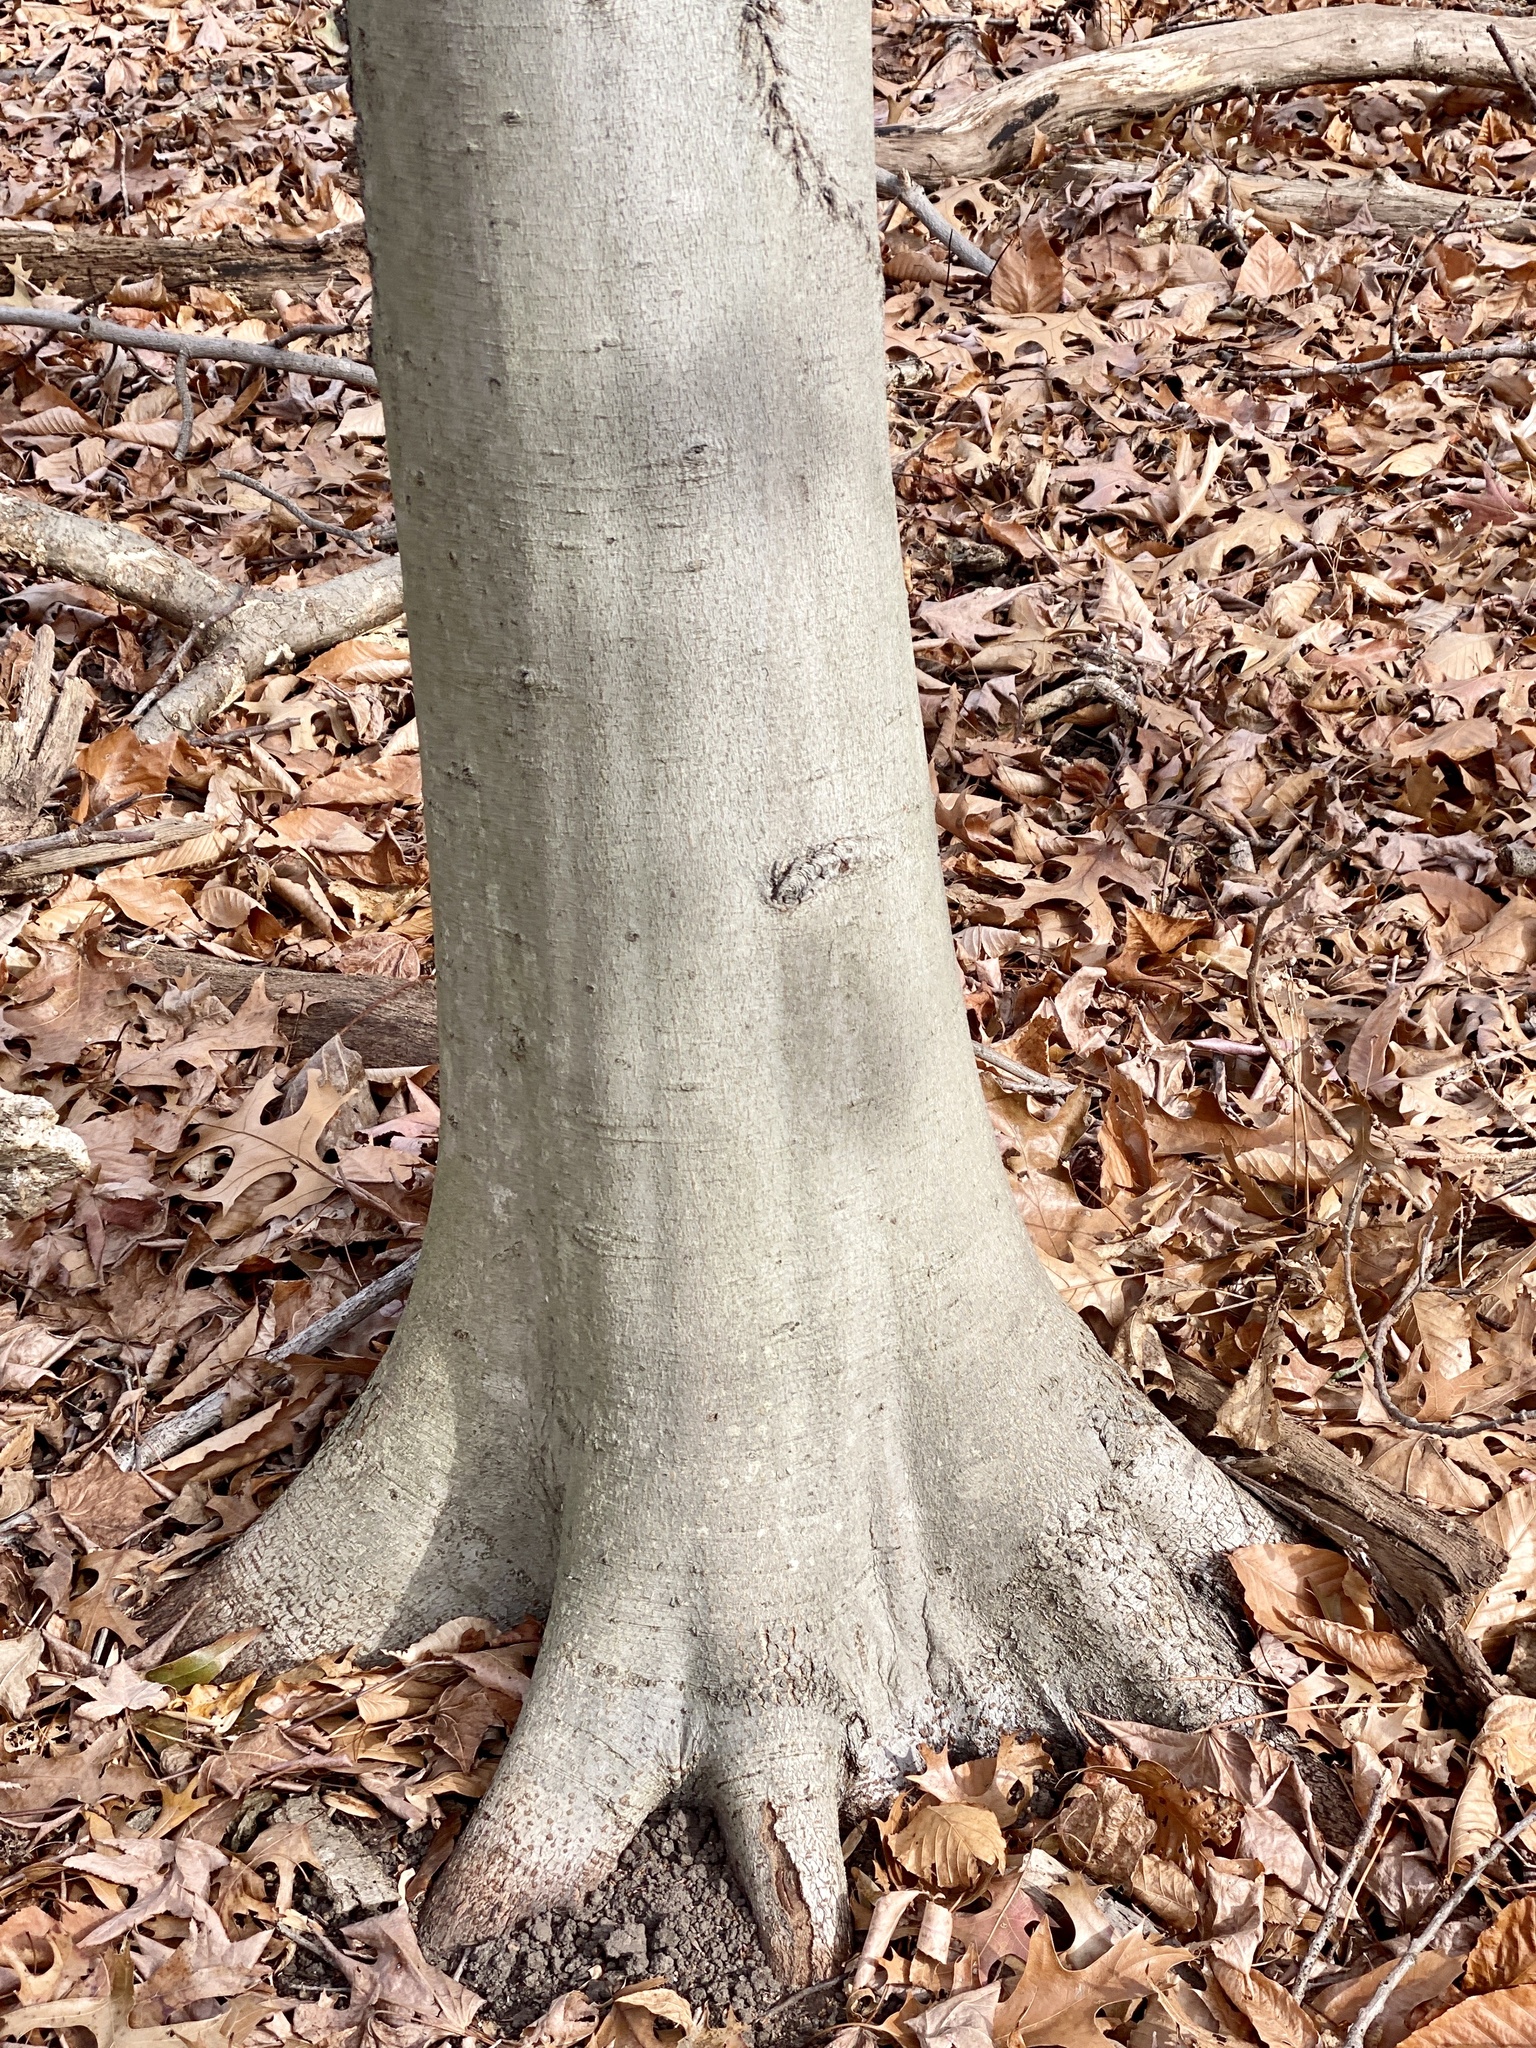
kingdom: Plantae
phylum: Tracheophyta
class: Magnoliopsida
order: Fagales
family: Fagaceae
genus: Fagus
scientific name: Fagus grandifolia
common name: American beech
